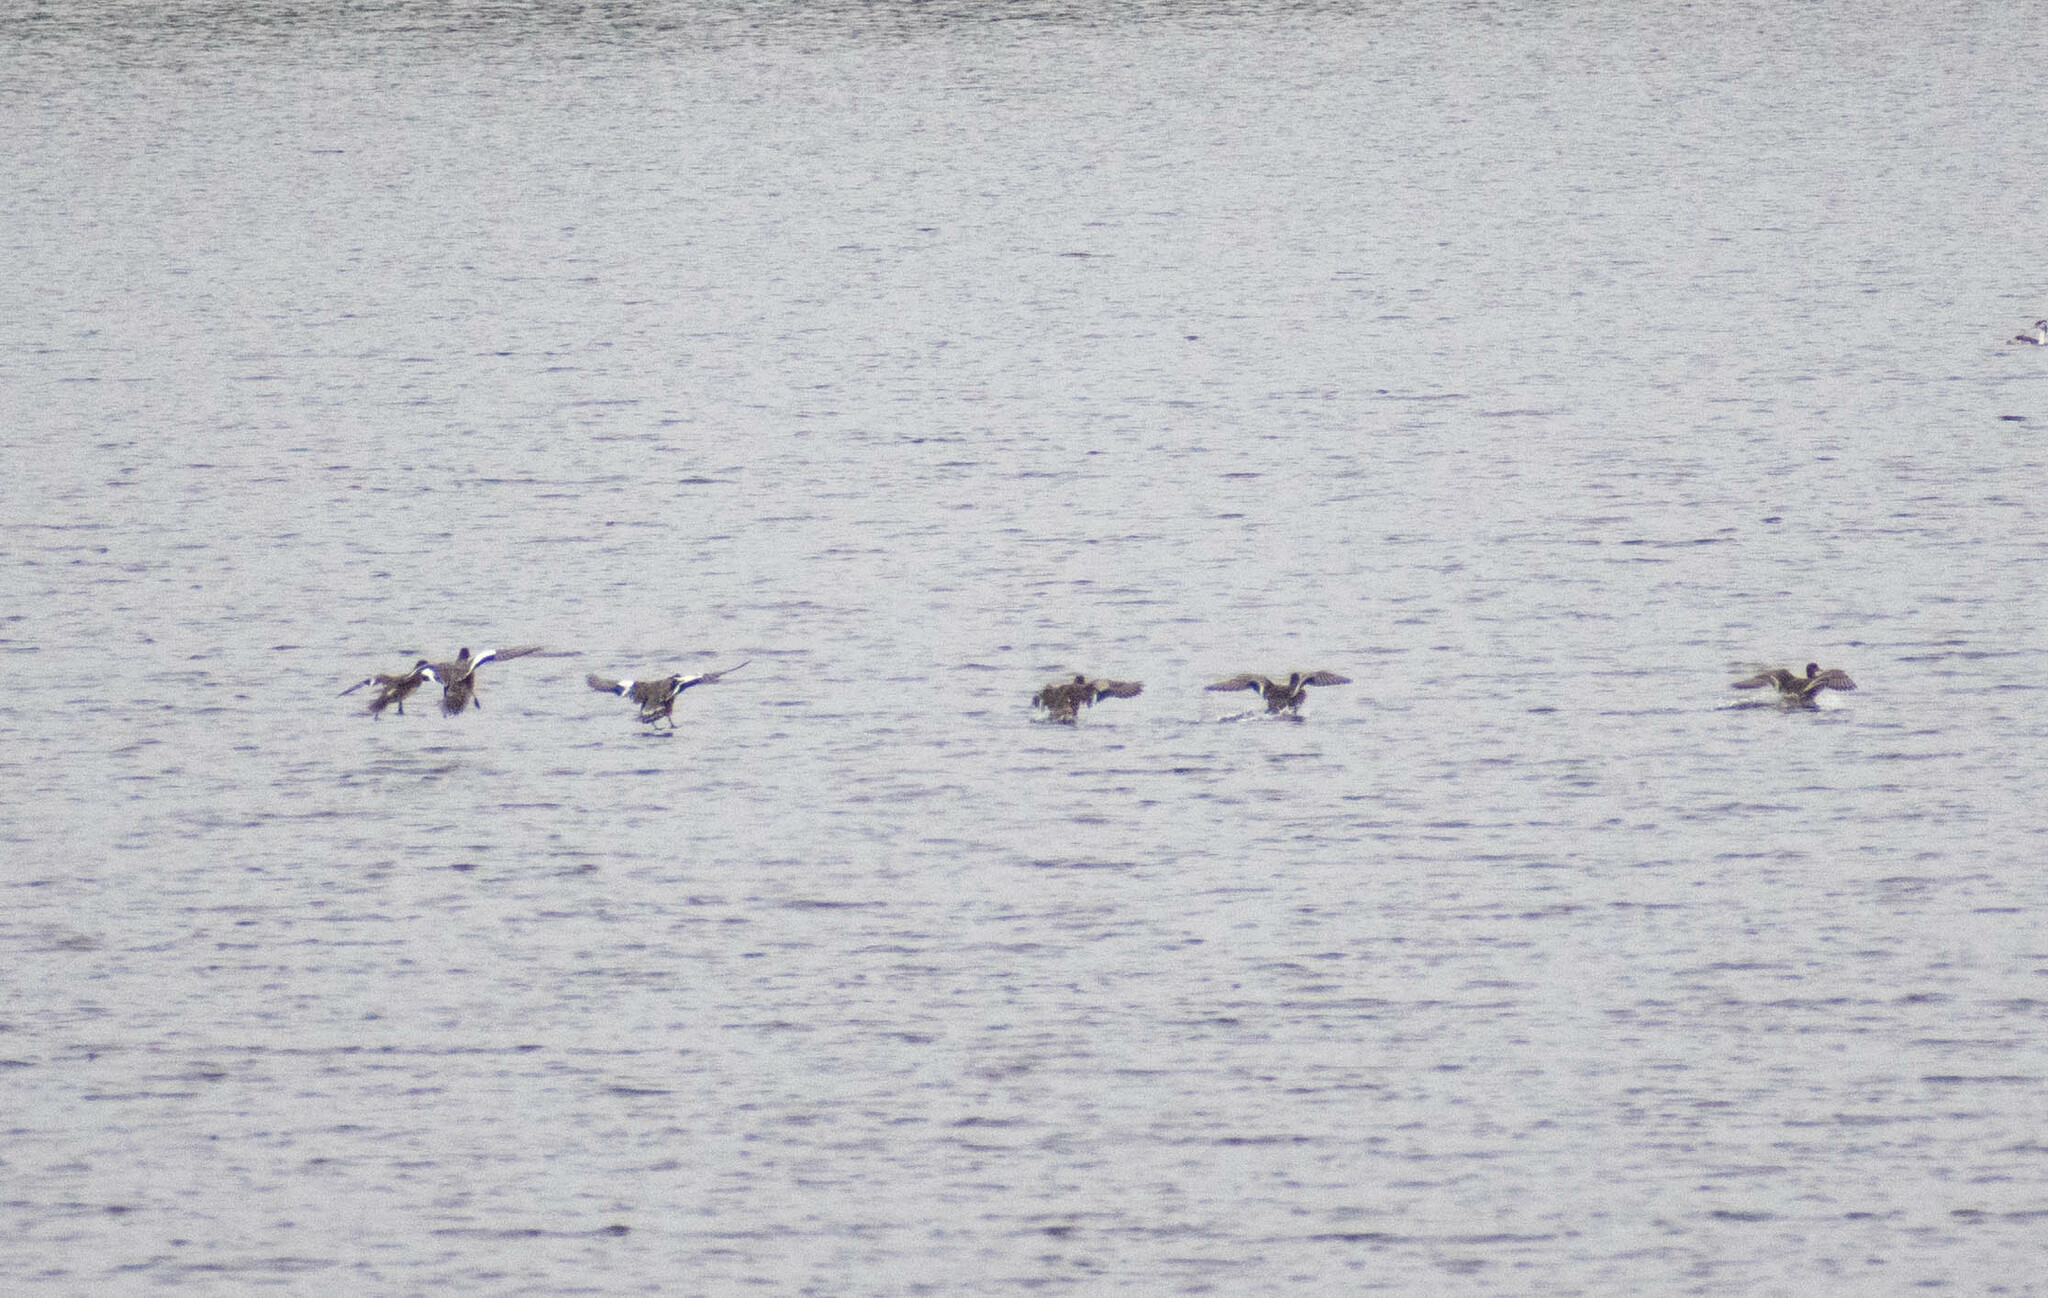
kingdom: Animalia
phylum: Chordata
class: Aves
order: Anseriformes
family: Anatidae
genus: Mareca
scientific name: Mareca penelope
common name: Eurasian wigeon
